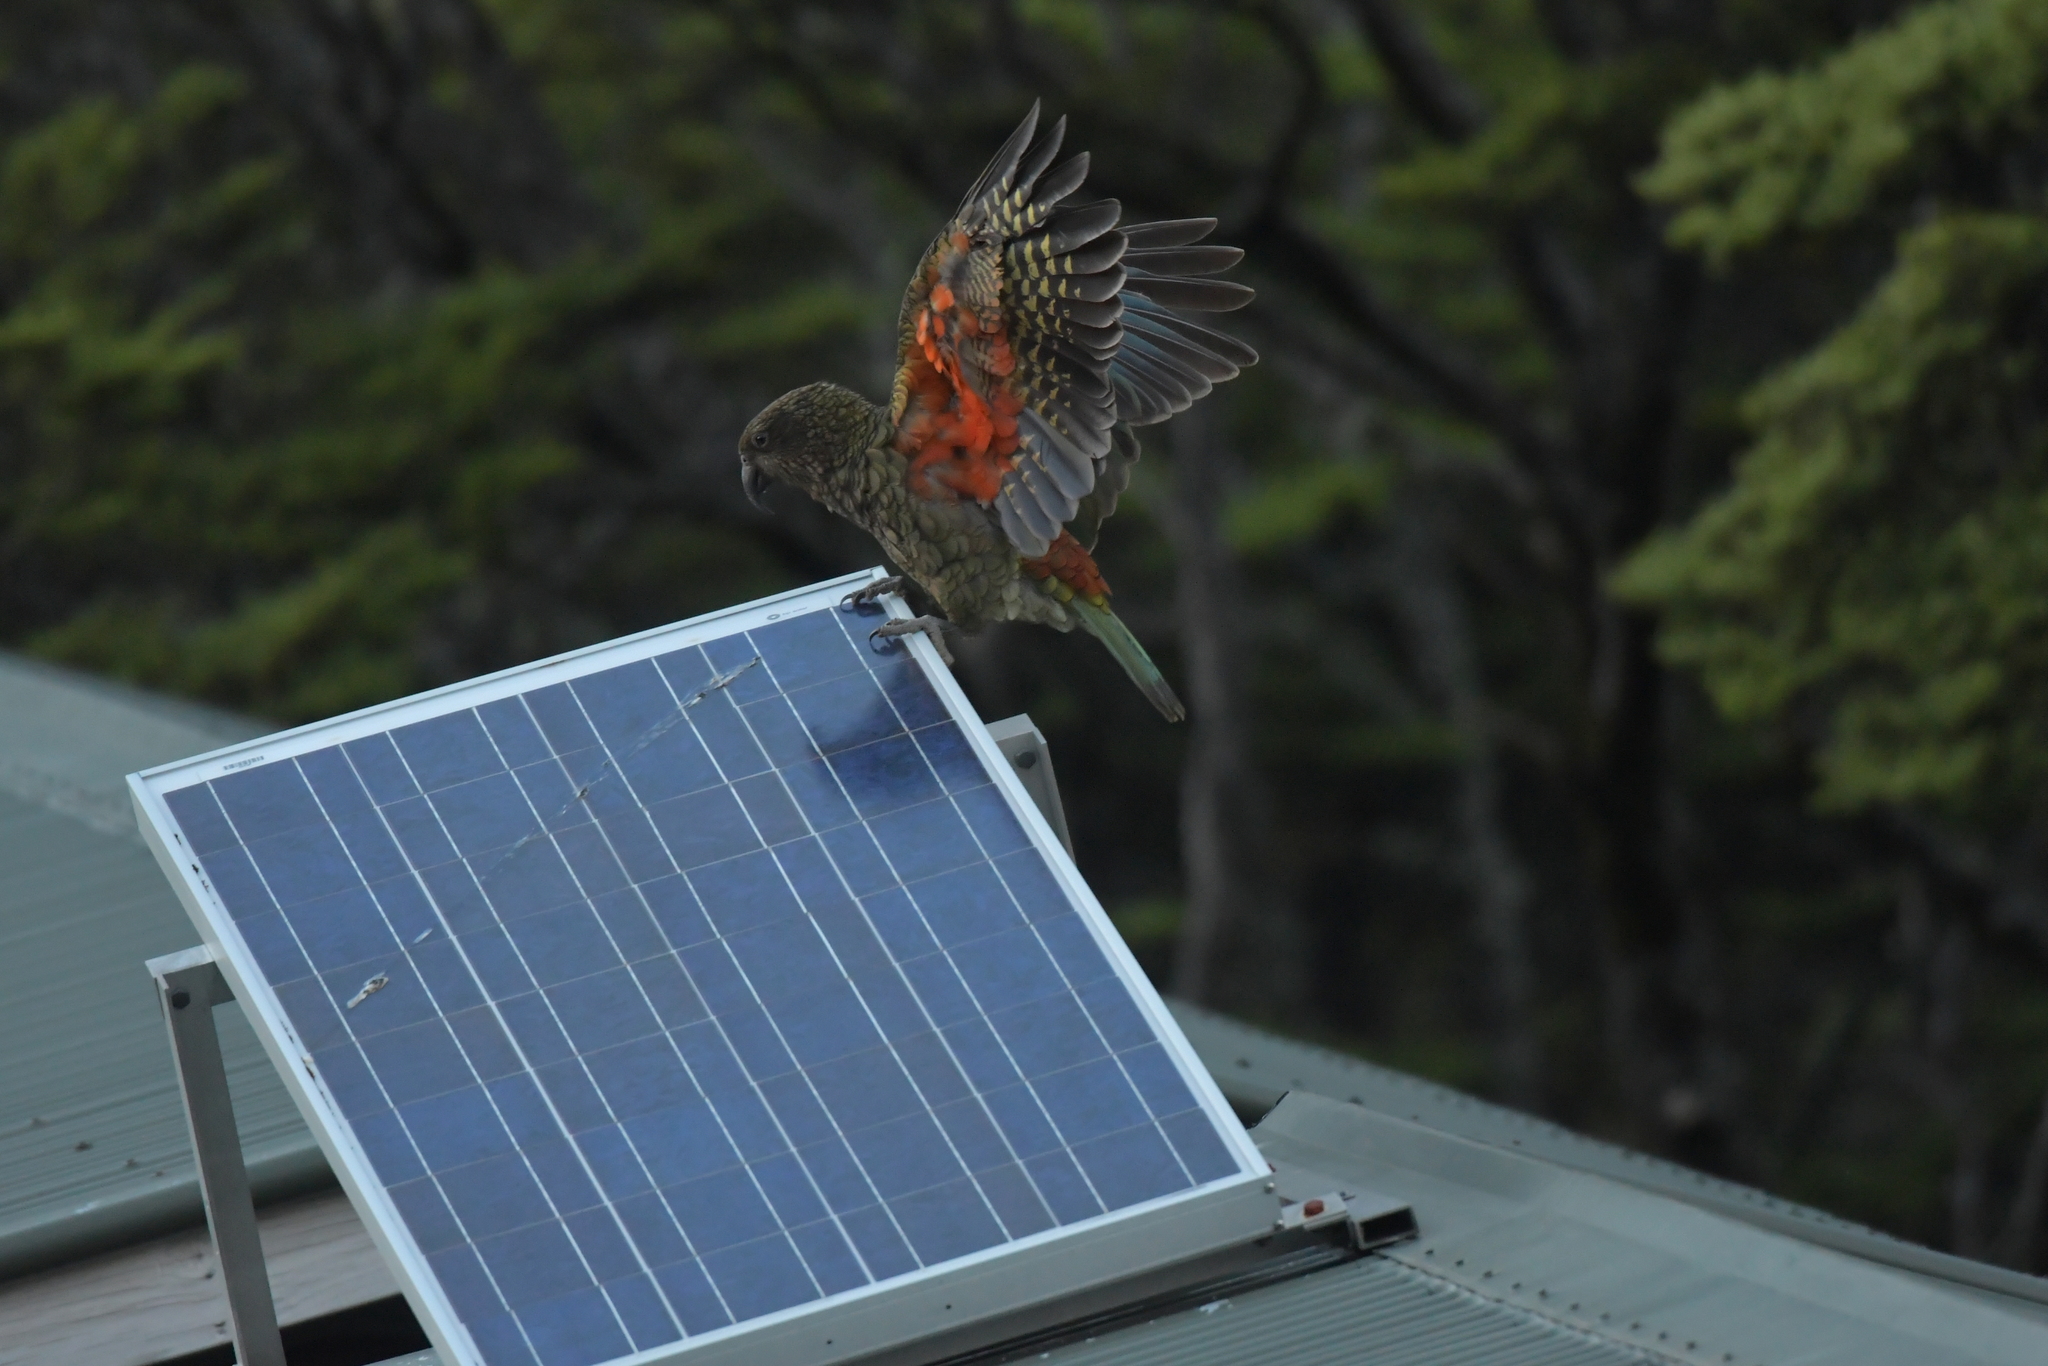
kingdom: Animalia
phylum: Chordata
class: Aves
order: Psittaciformes
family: Psittacidae
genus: Nestor
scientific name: Nestor notabilis
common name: Kea
